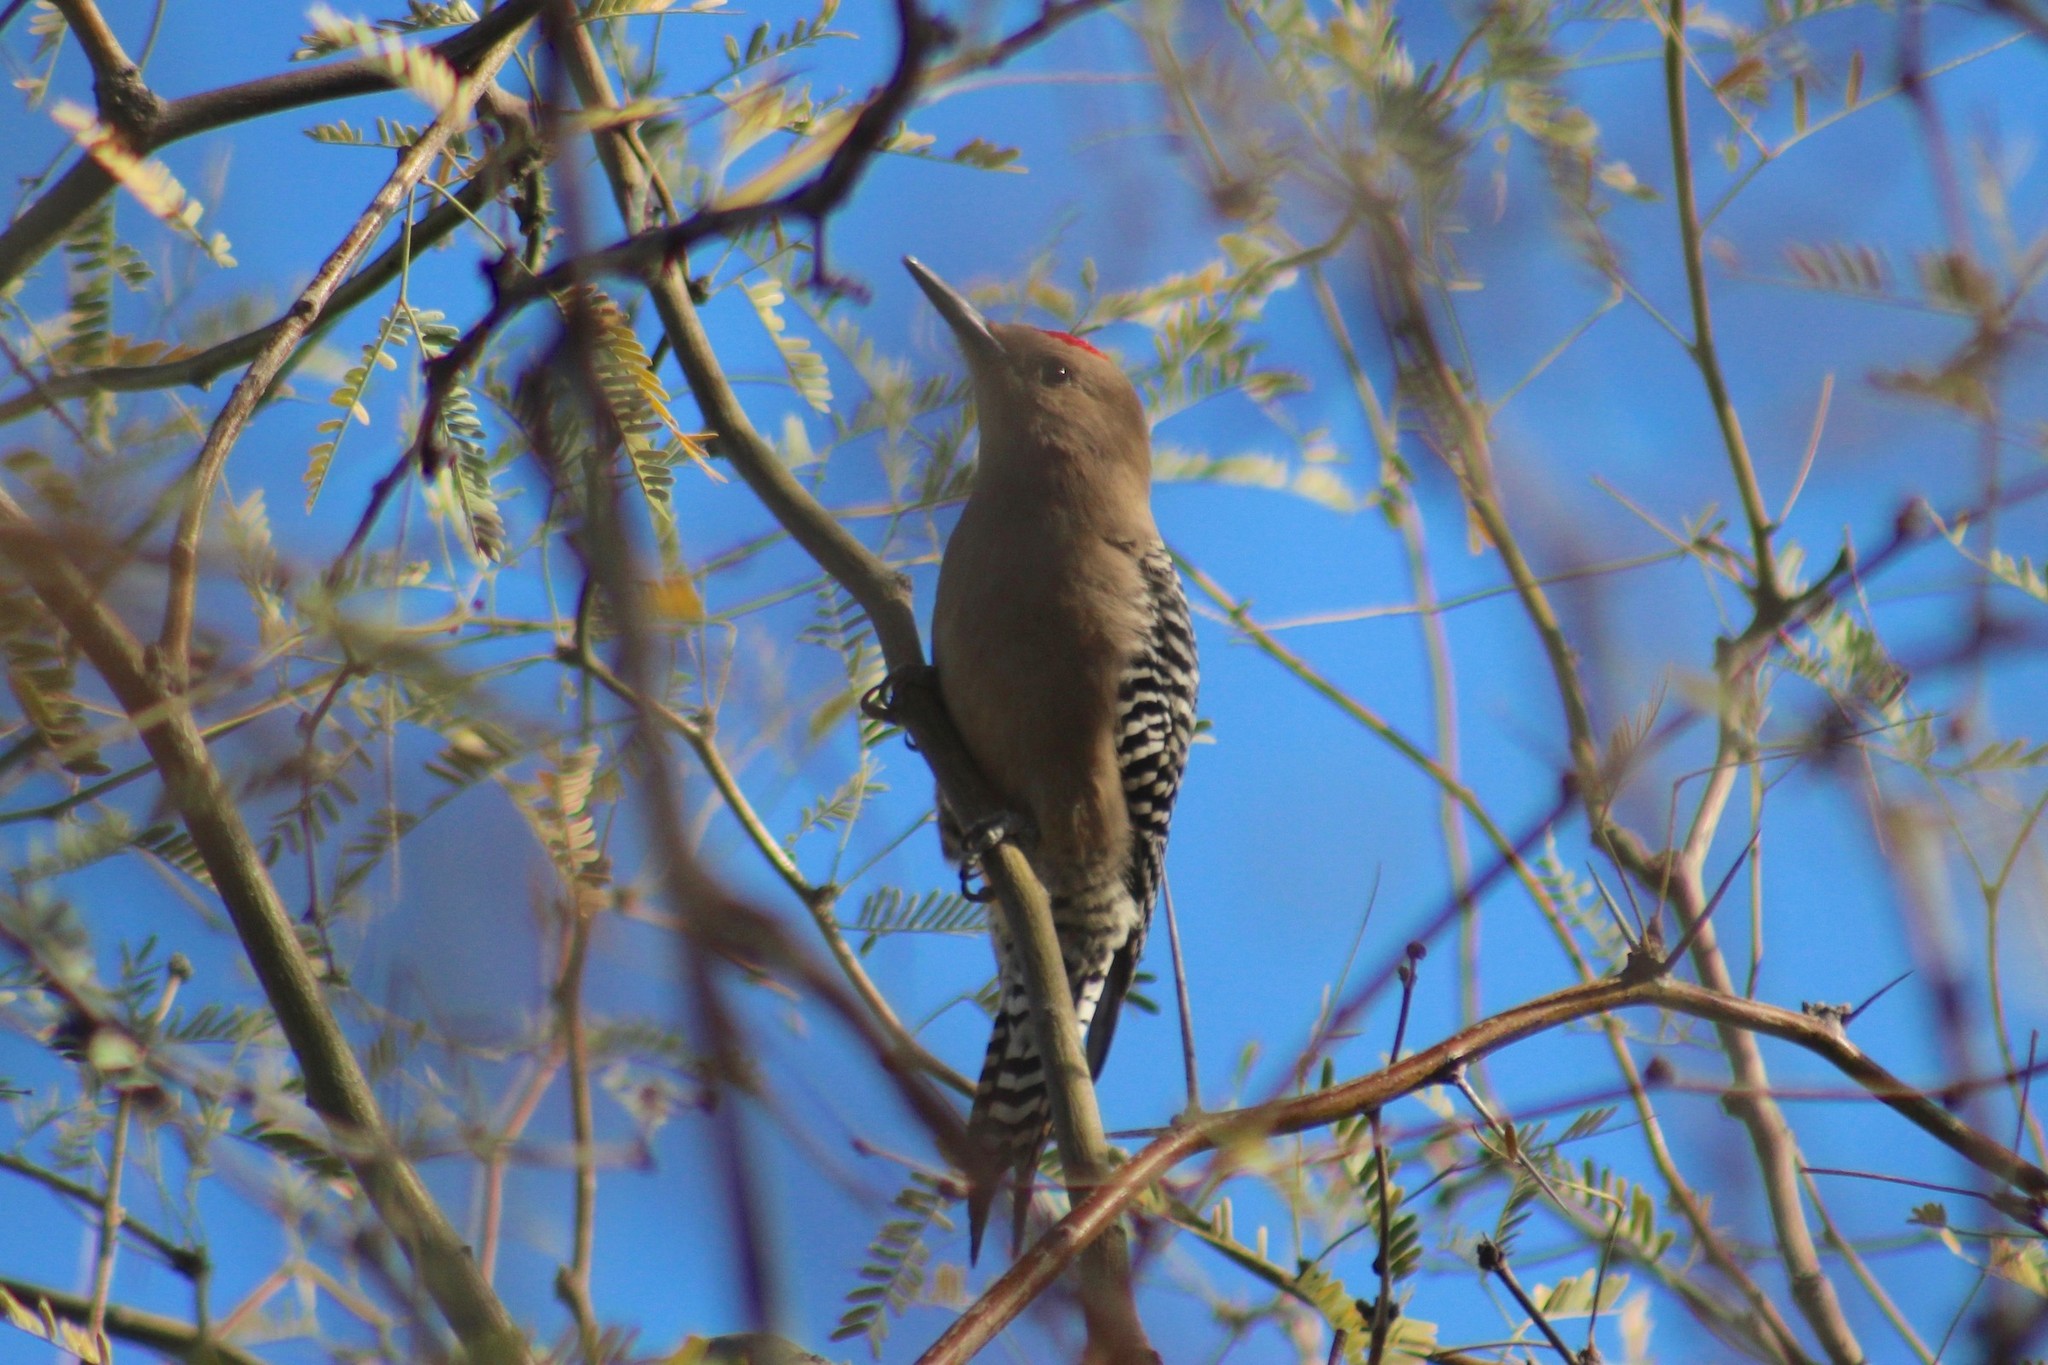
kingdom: Animalia
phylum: Chordata
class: Aves
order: Piciformes
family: Picidae
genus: Melanerpes
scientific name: Melanerpes uropygialis
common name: Gila woodpecker
